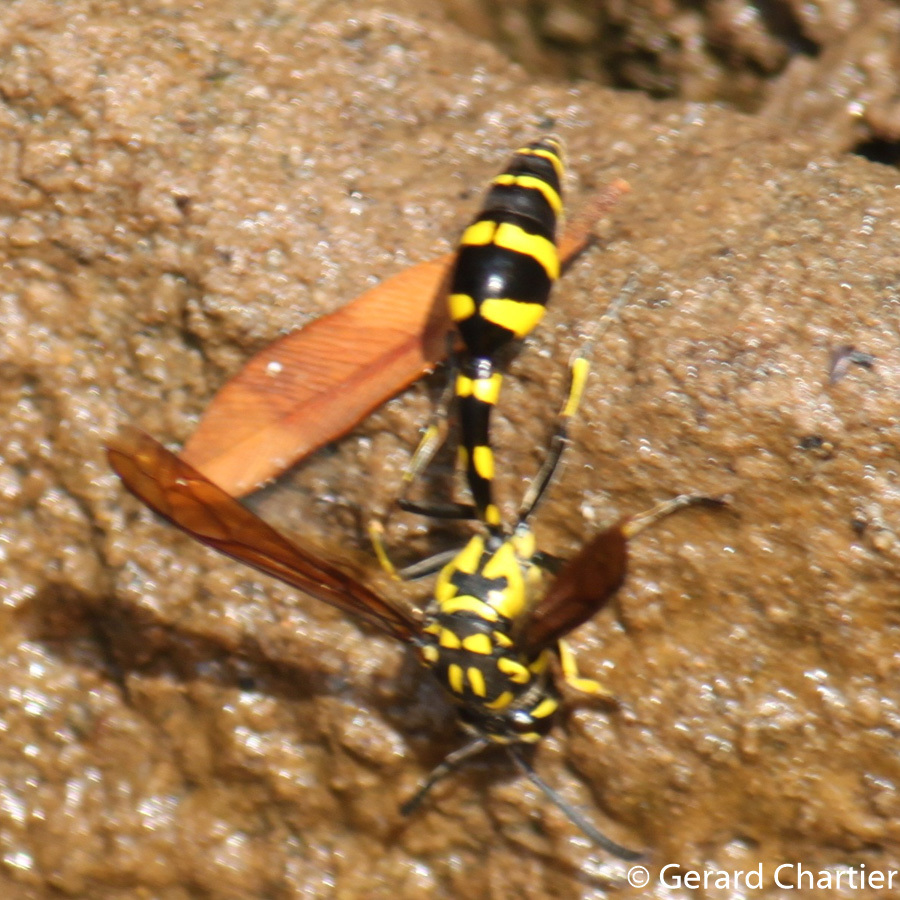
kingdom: Animalia
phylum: Arthropoda
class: Insecta
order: Hymenoptera
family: Eumenidae
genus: Phimenes
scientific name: Phimenes flavopictus
